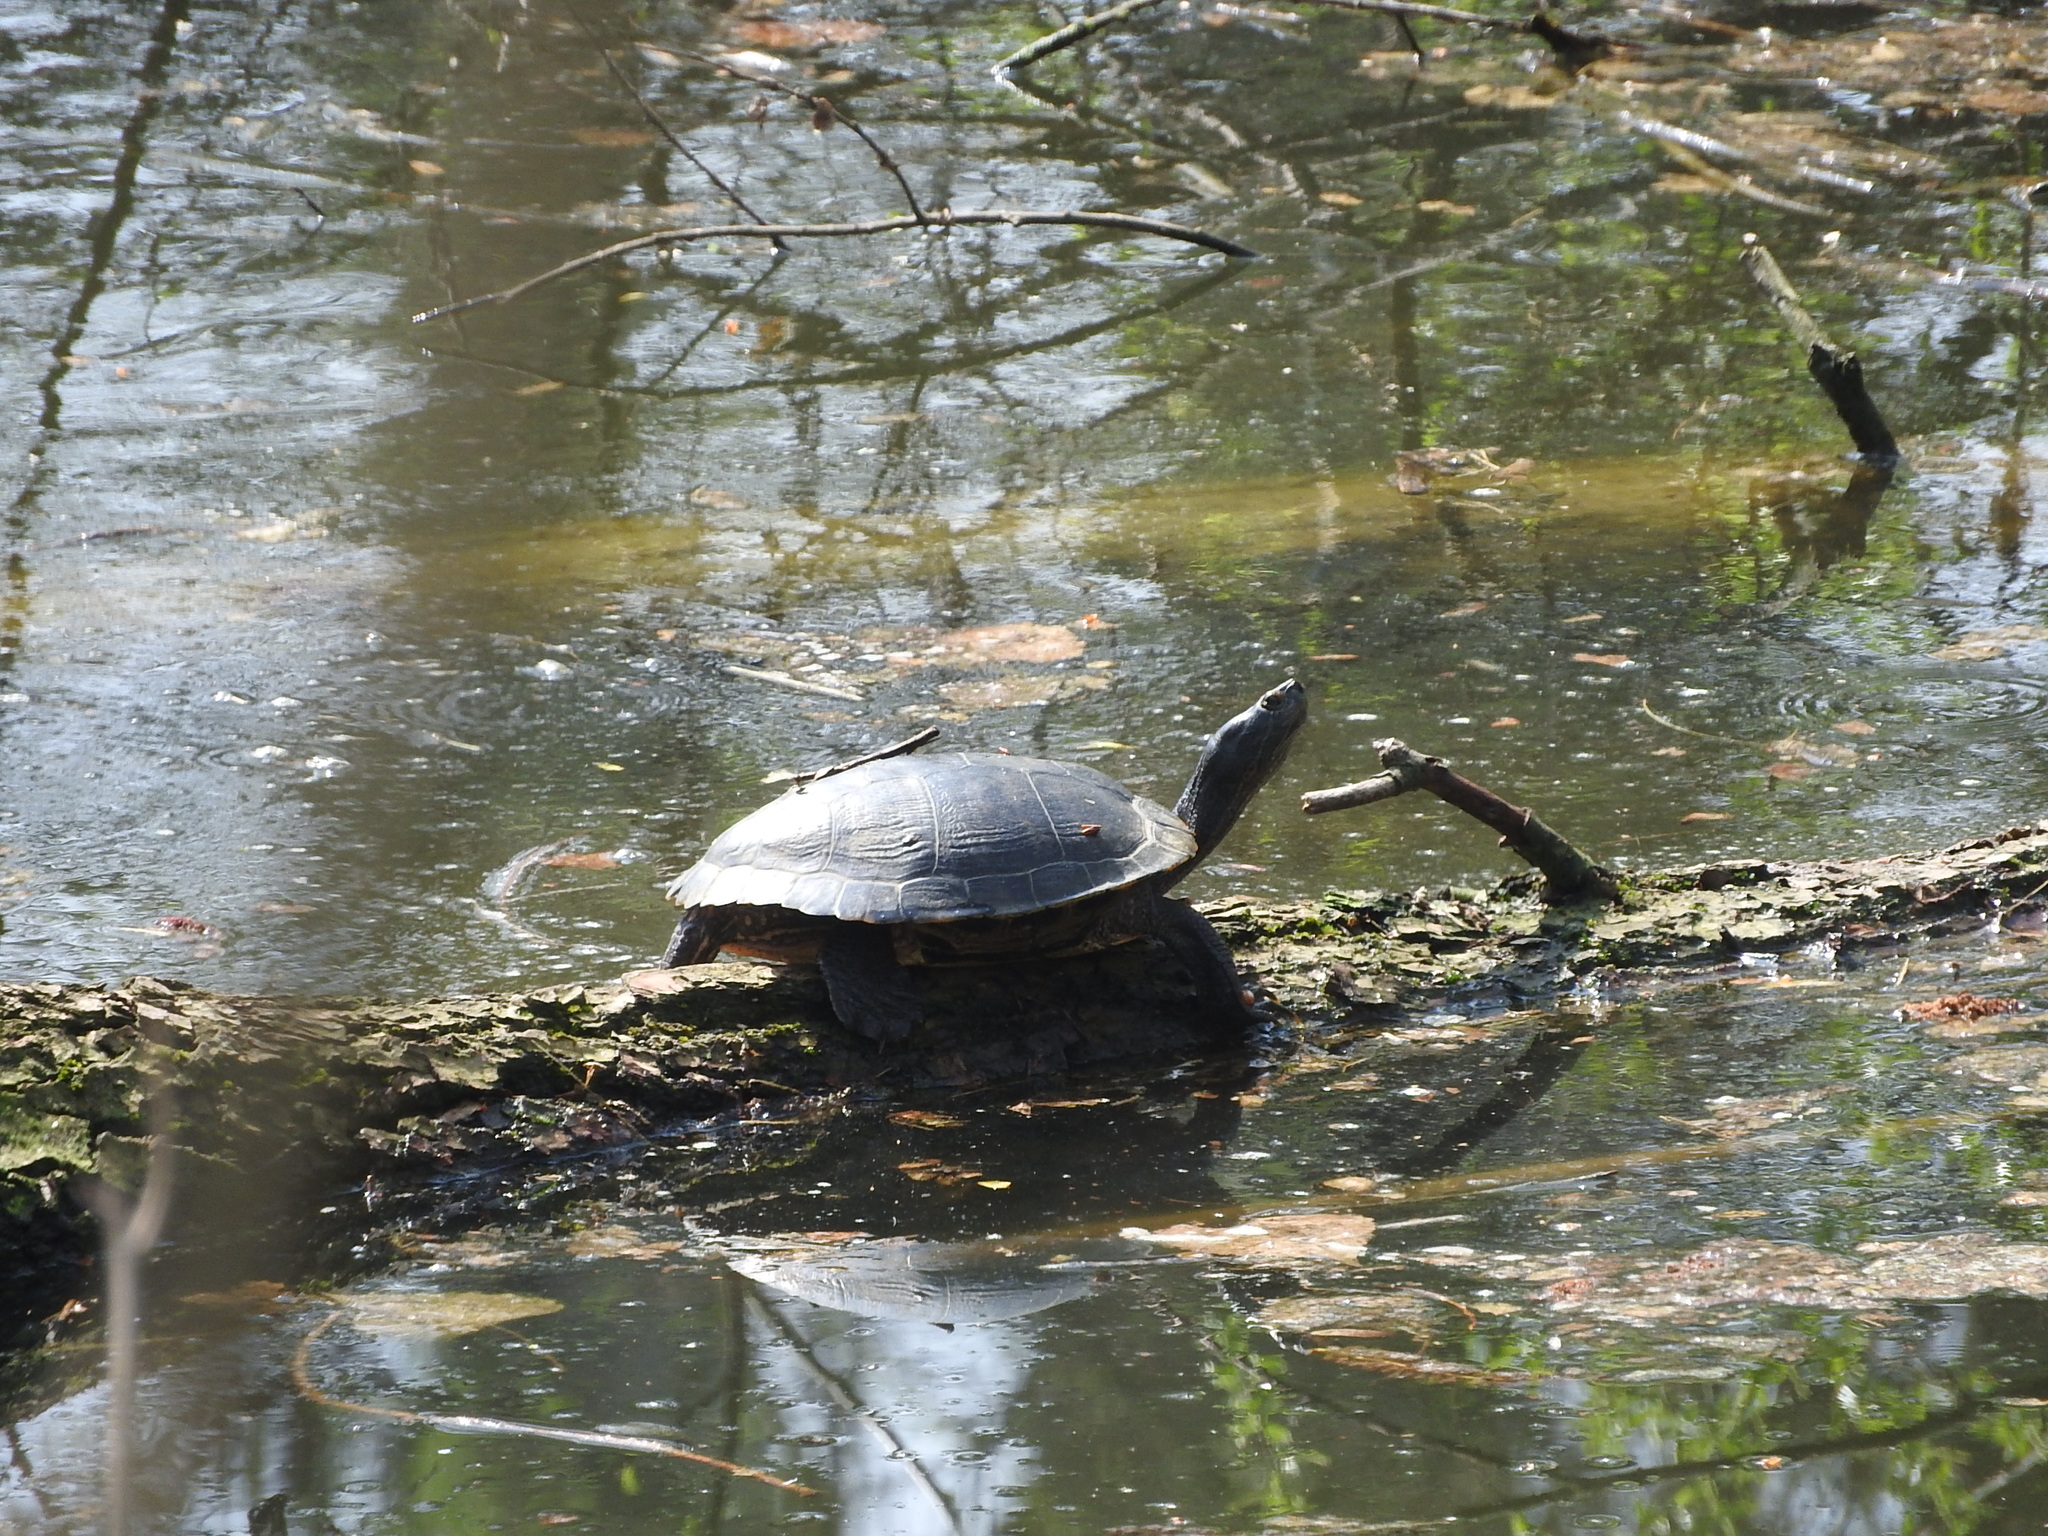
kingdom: Animalia
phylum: Chordata
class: Testudines
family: Emydidae
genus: Trachemys
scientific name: Trachemys scripta
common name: Slider
